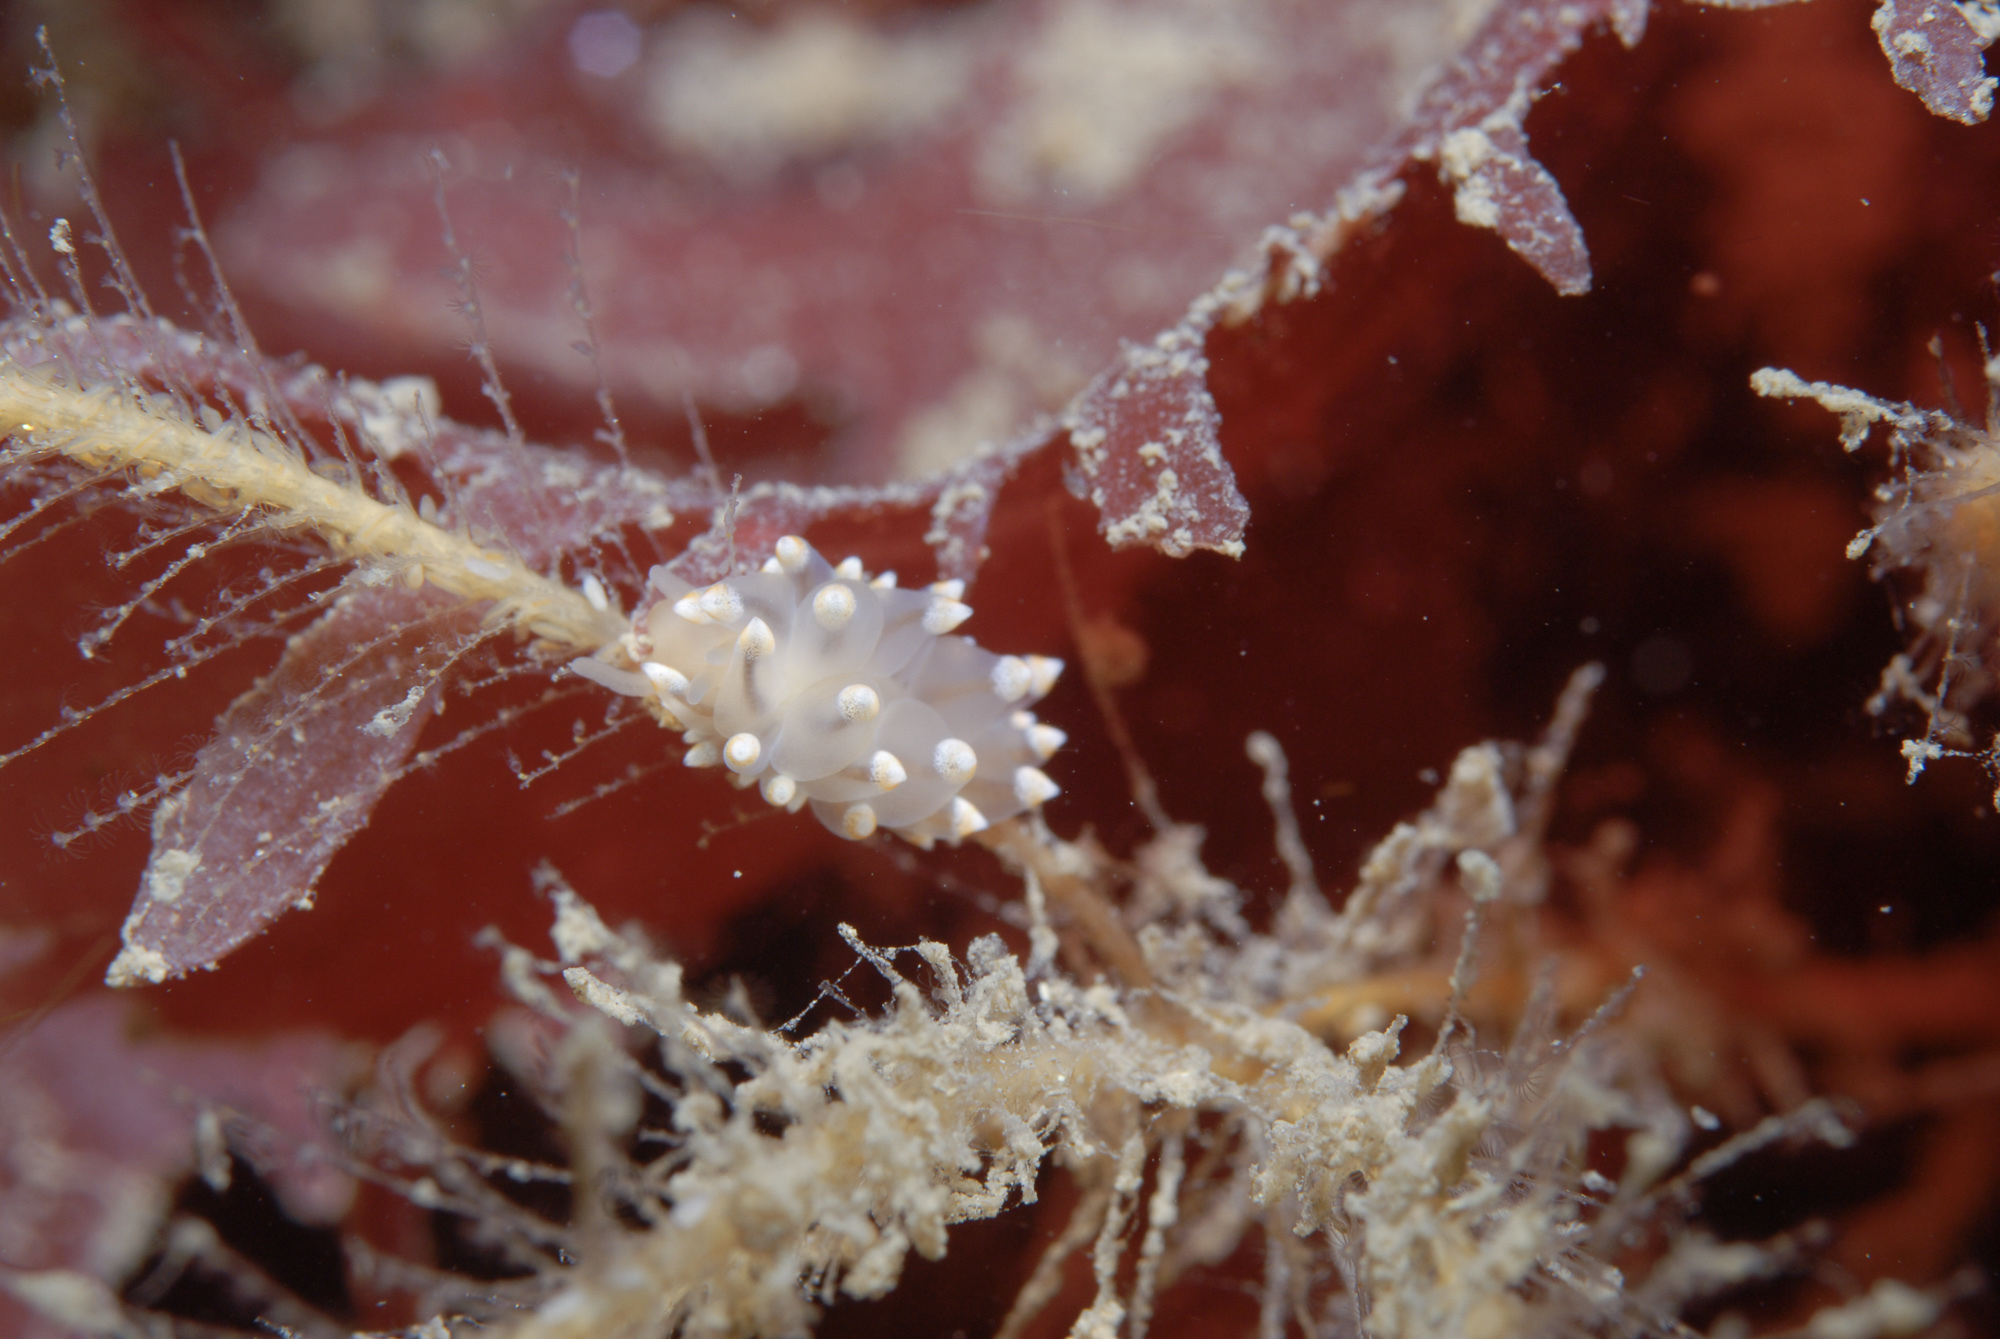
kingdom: Animalia
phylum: Mollusca
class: Gastropoda
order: Nudibranchia
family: Eubranchidae
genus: Eubranchus
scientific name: Eubranchus tricolor
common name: Painted balloon aeolis
